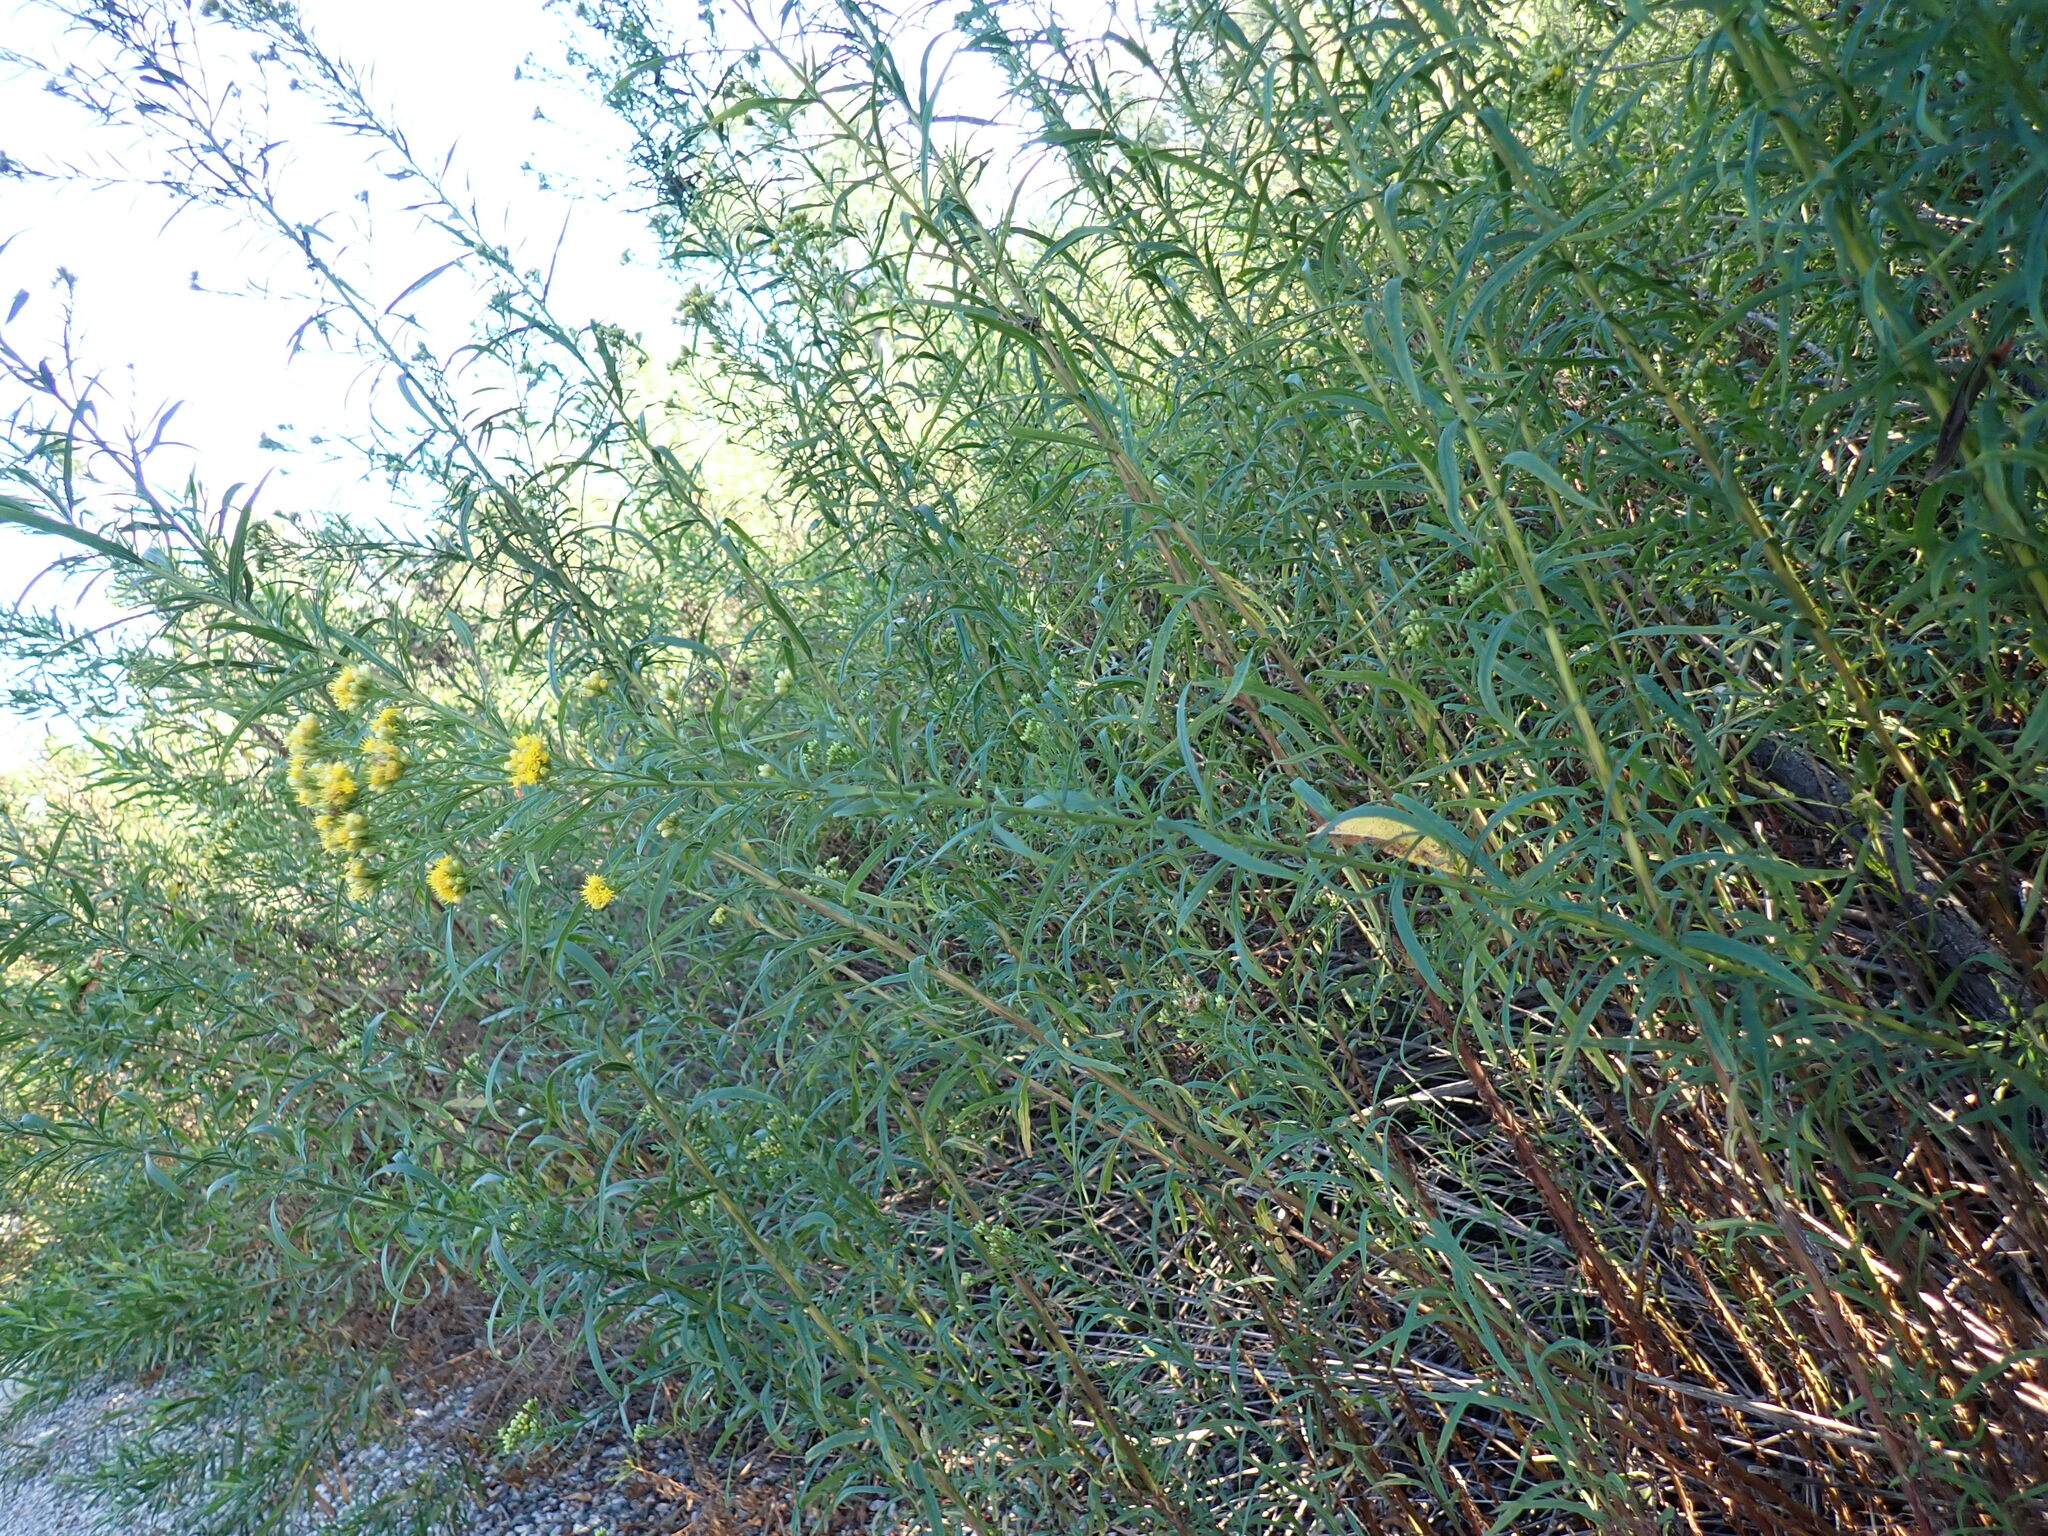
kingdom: Plantae
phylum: Tracheophyta
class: Magnoliopsida
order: Asterales
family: Asteraceae
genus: Euthamia
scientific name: Euthamia occidentalis
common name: Western goldentop
